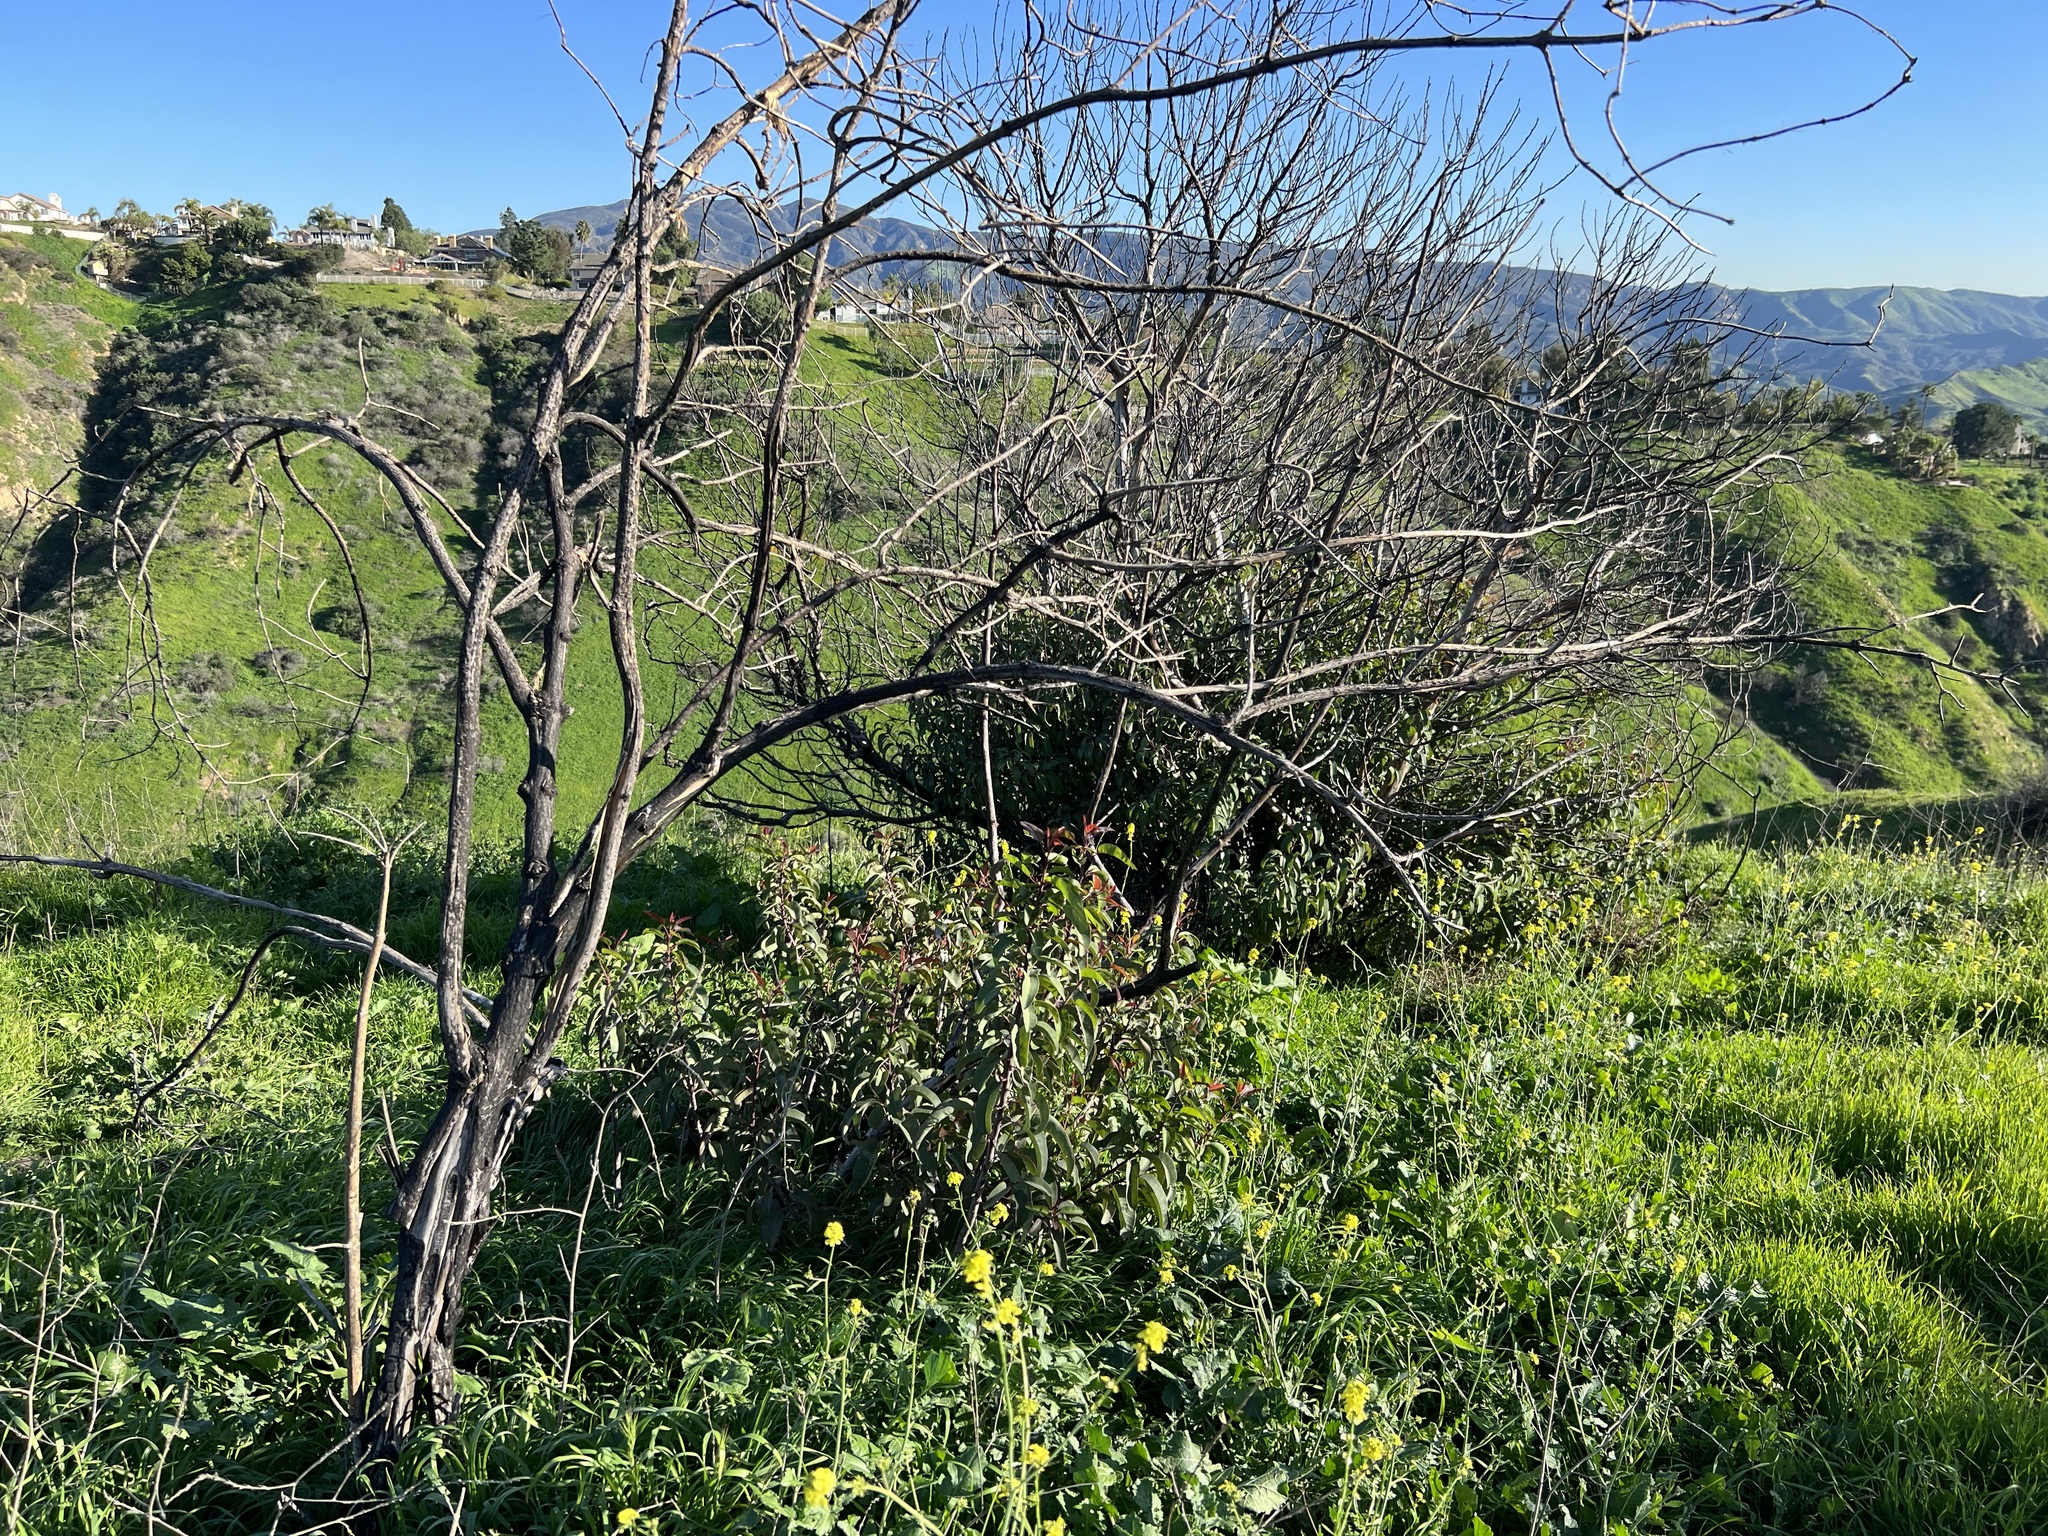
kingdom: Plantae
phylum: Tracheophyta
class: Magnoliopsida
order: Sapindales
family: Anacardiaceae
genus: Malosma
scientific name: Malosma laurina
